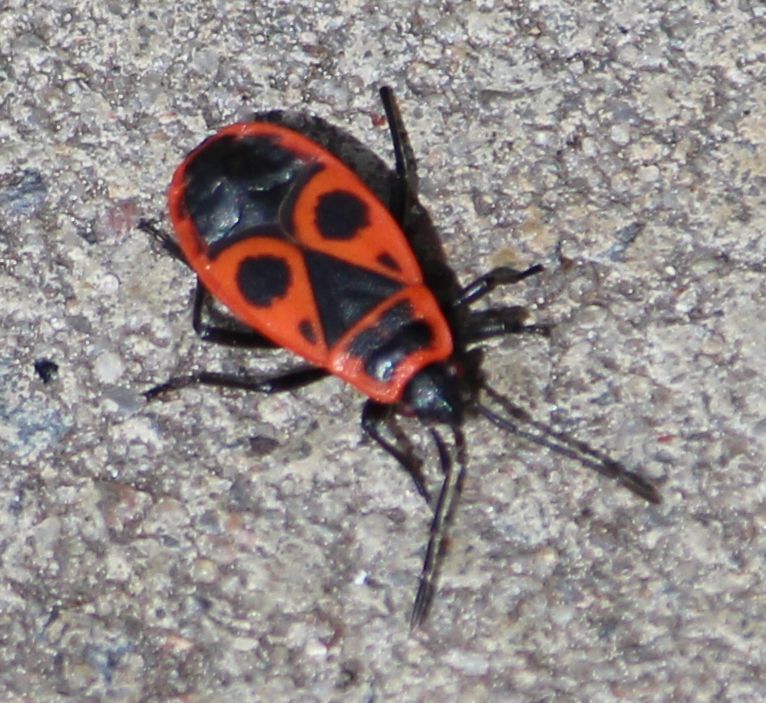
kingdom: Animalia
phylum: Arthropoda
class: Insecta
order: Hemiptera
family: Pyrrhocoridae
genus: Pyrrhocoris
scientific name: Pyrrhocoris apterus
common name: Firebug
